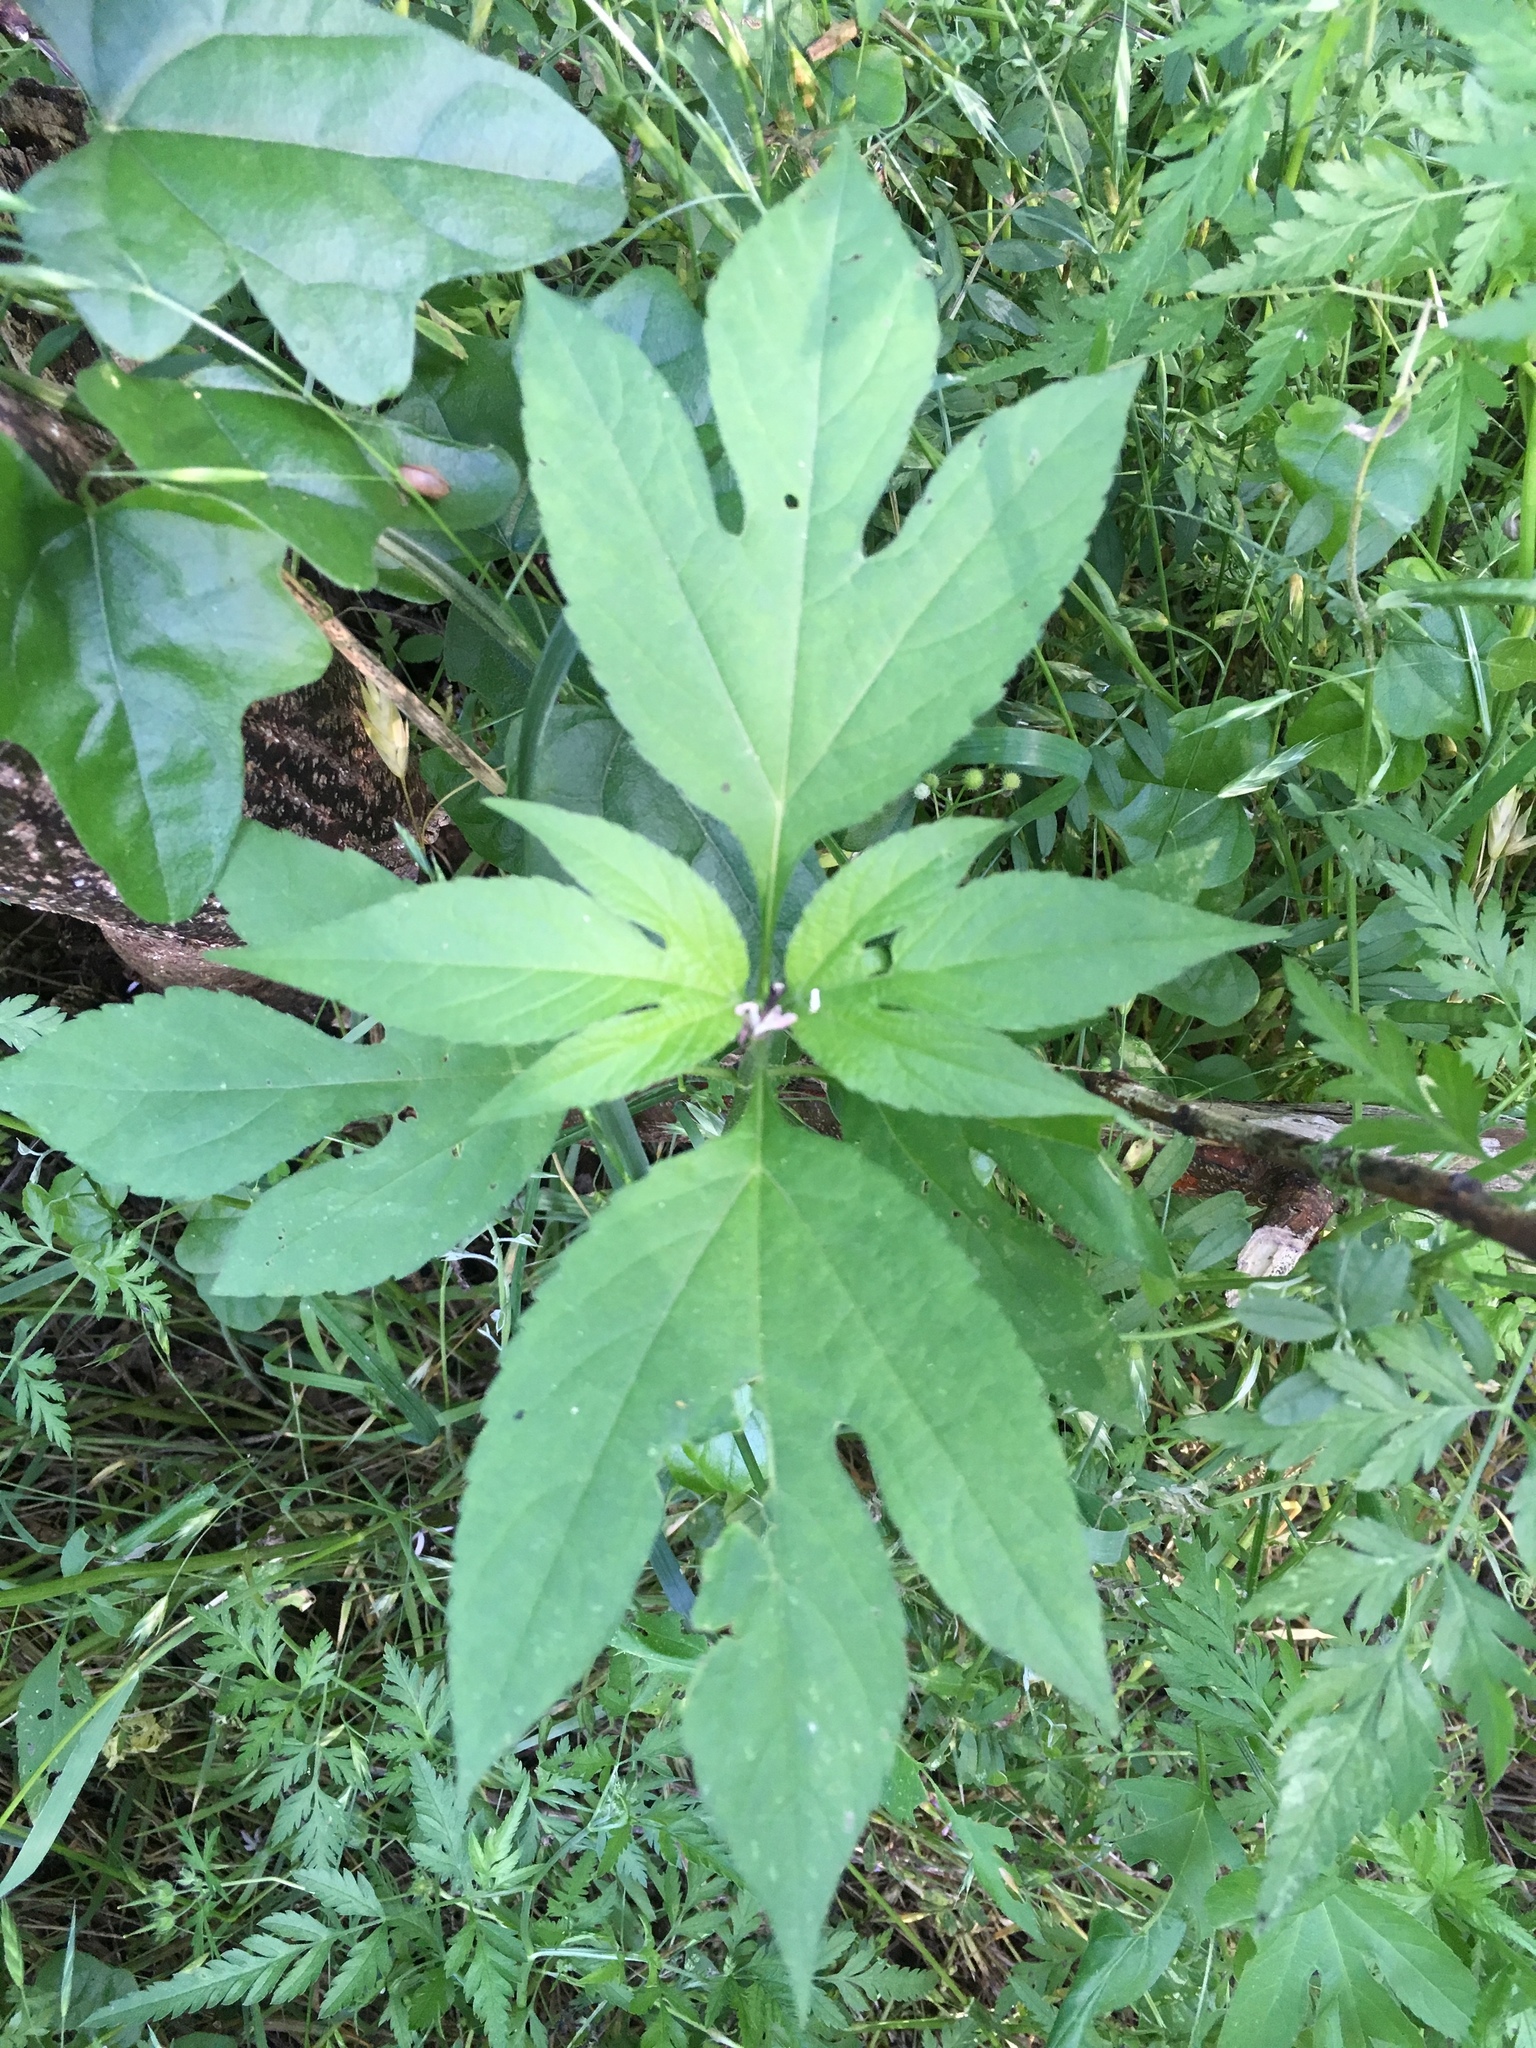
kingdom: Plantae
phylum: Tracheophyta
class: Magnoliopsida
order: Asterales
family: Asteraceae
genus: Ambrosia
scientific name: Ambrosia trifida
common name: Giant ragweed
